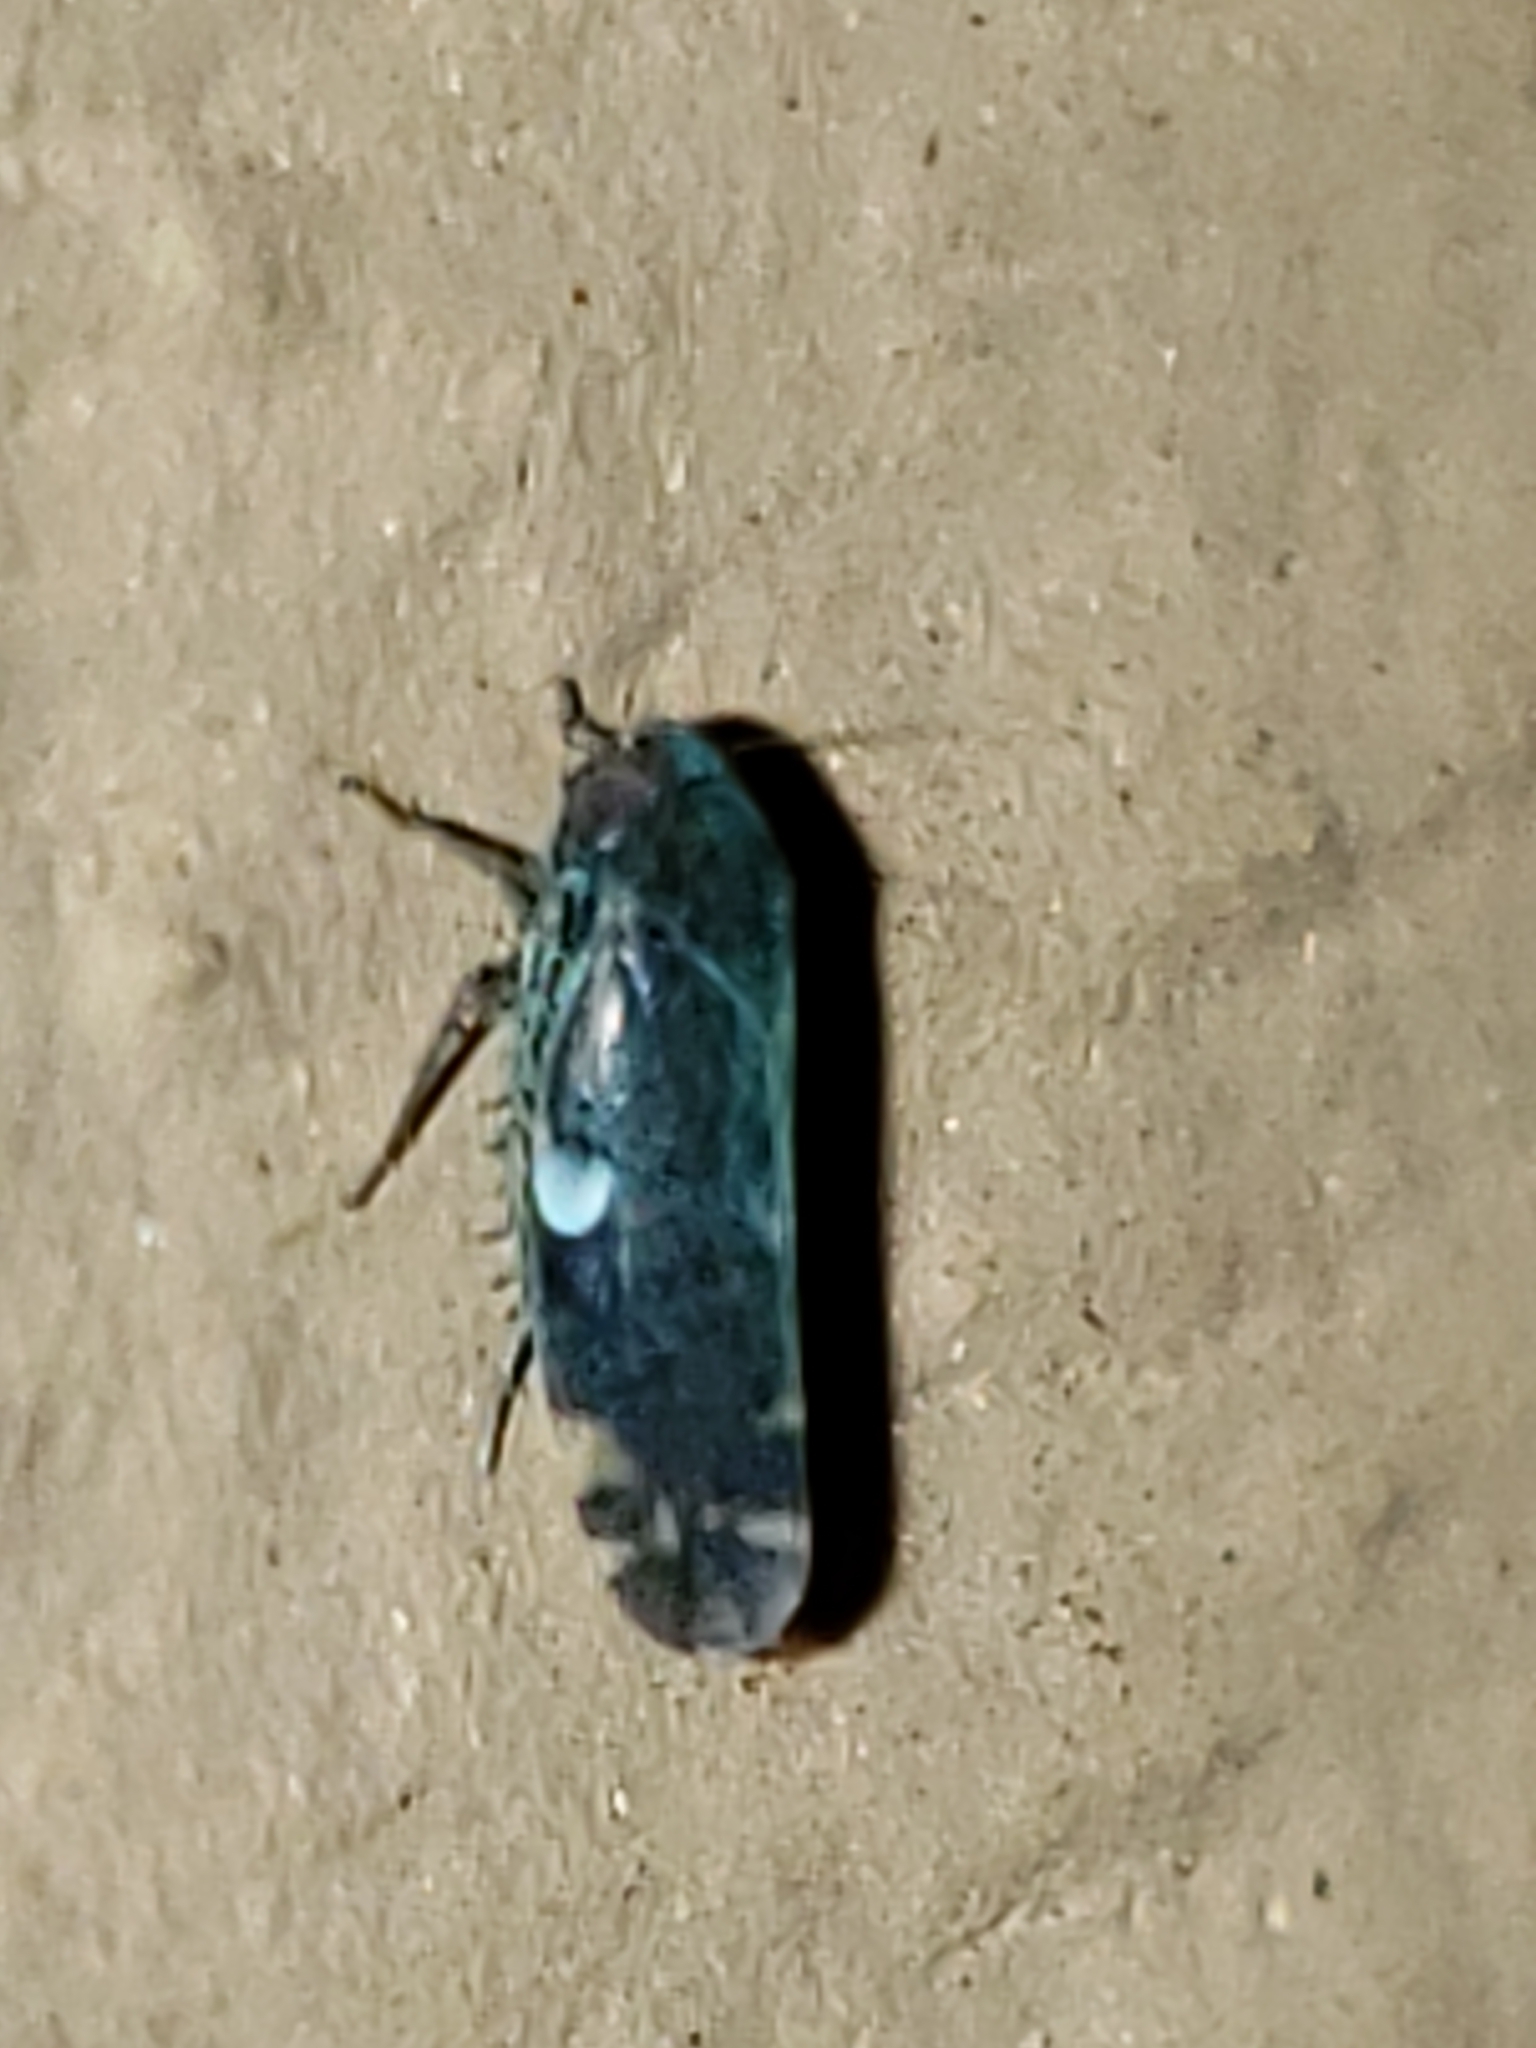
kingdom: Animalia
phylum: Arthropoda
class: Insecta
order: Hemiptera
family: Cicadellidae
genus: Xestocephalus
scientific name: Xestocephalus brunneus
